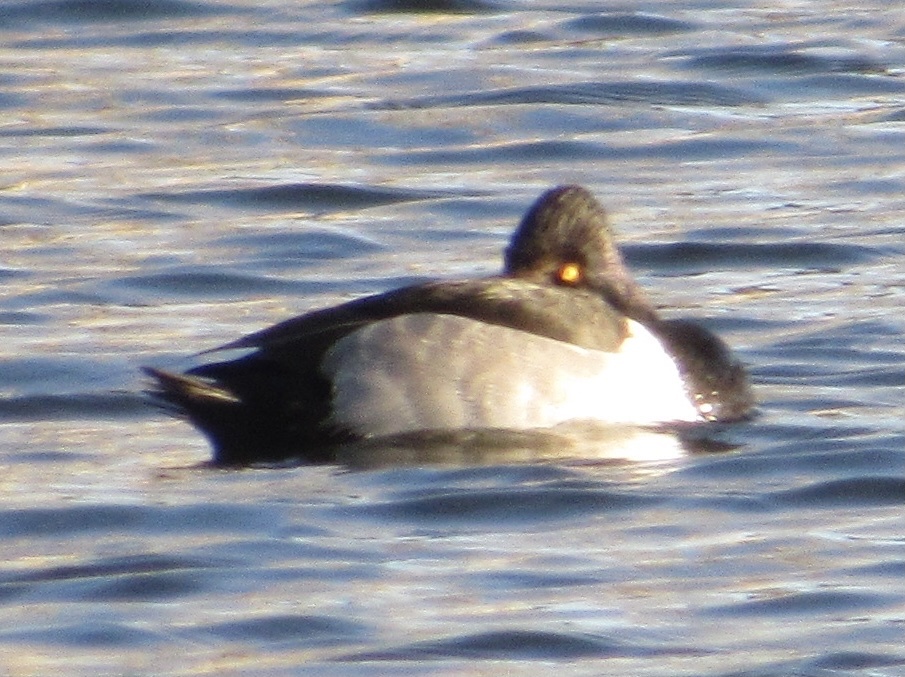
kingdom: Animalia
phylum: Chordata
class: Aves
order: Anseriformes
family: Anatidae
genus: Aythya
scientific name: Aythya collaris
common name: Ring-necked duck
